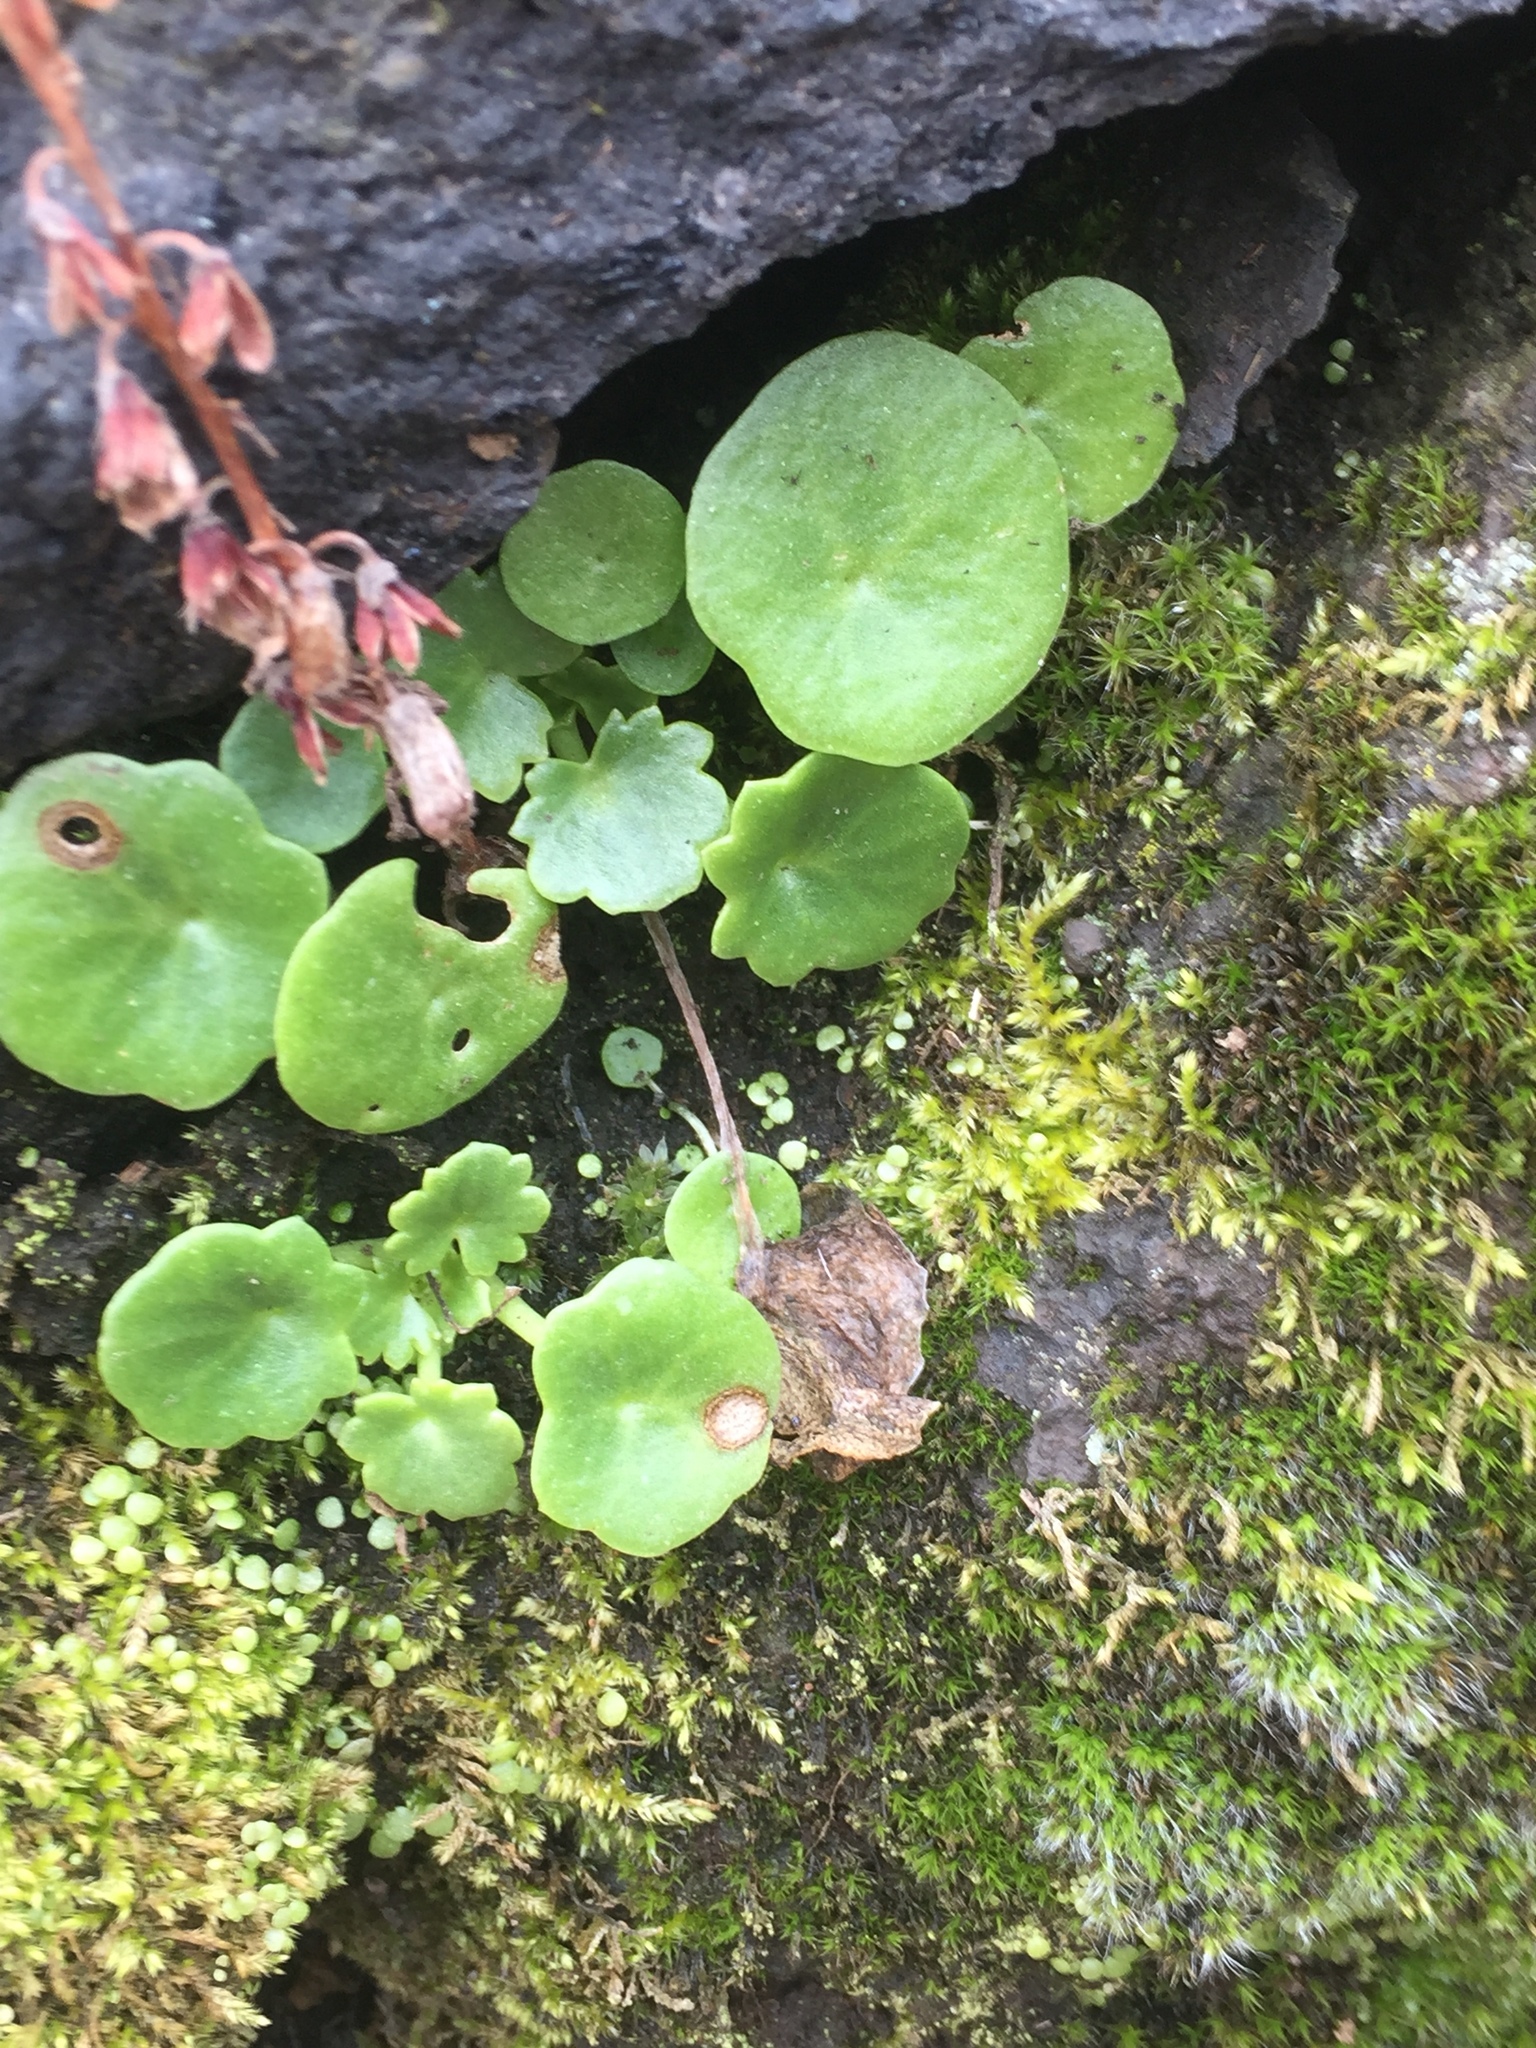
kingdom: Plantae
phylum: Tracheophyta
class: Magnoliopsida
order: Saxifragales
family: Crassulaceae
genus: Umbilicus
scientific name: Umbilicus rupestris
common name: Navelwort
